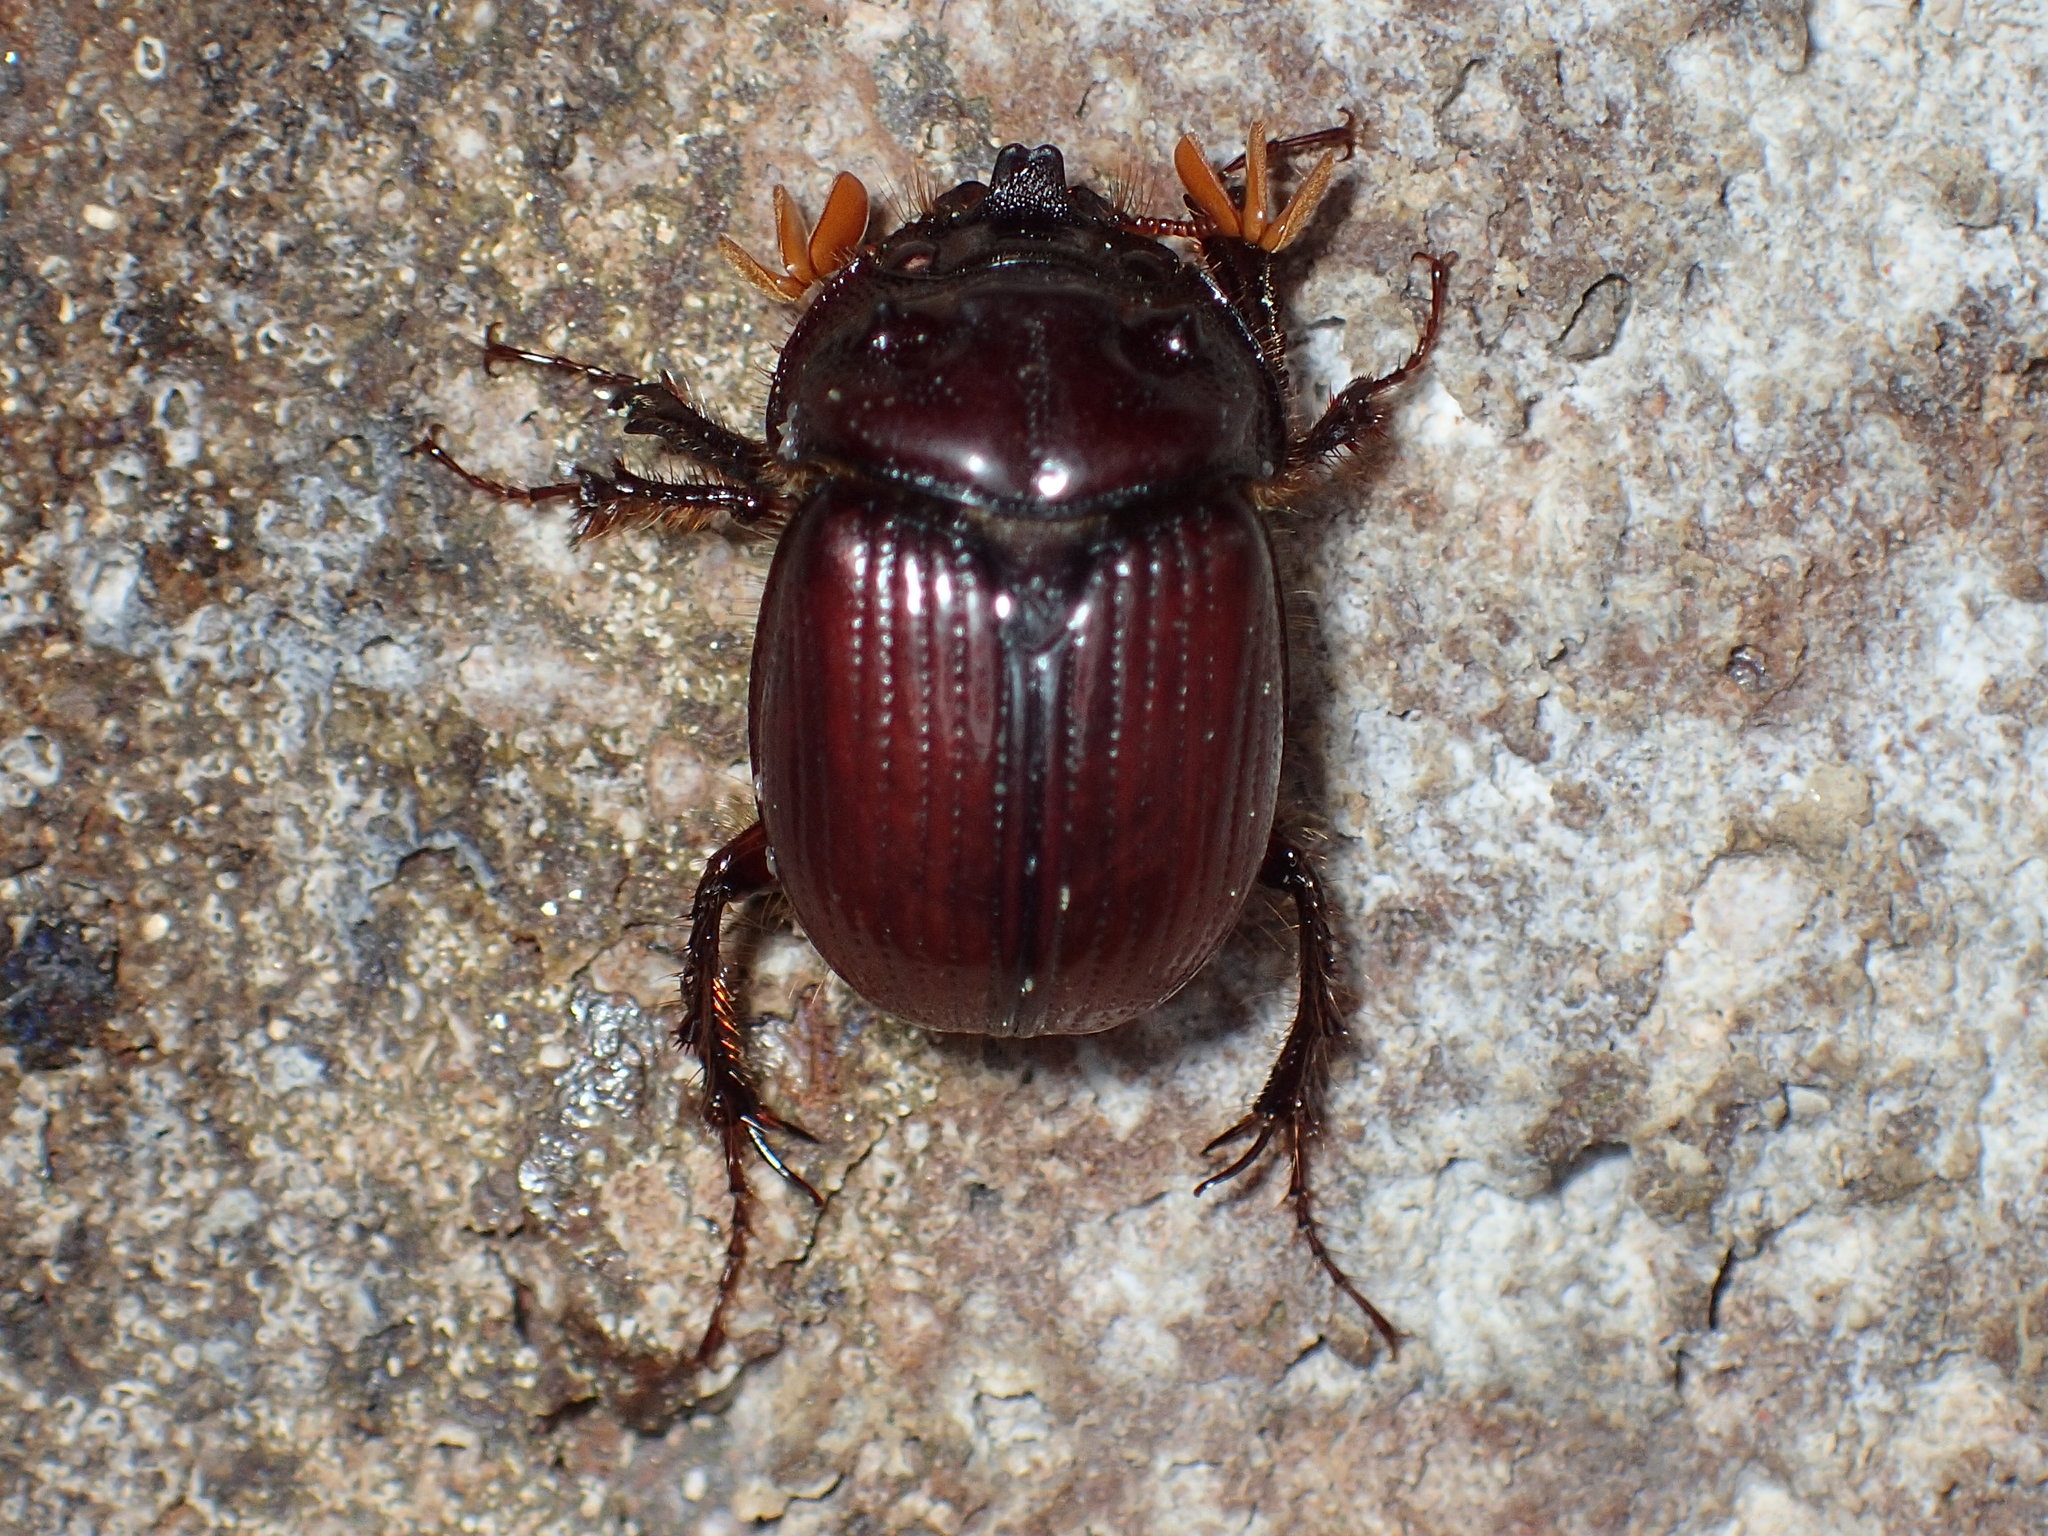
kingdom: Animalia
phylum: Arthropoda
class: Insecta
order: Coleoptera
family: Geotrupidae
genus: Bolbelasmus
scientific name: Bolbelasmus lazarus
